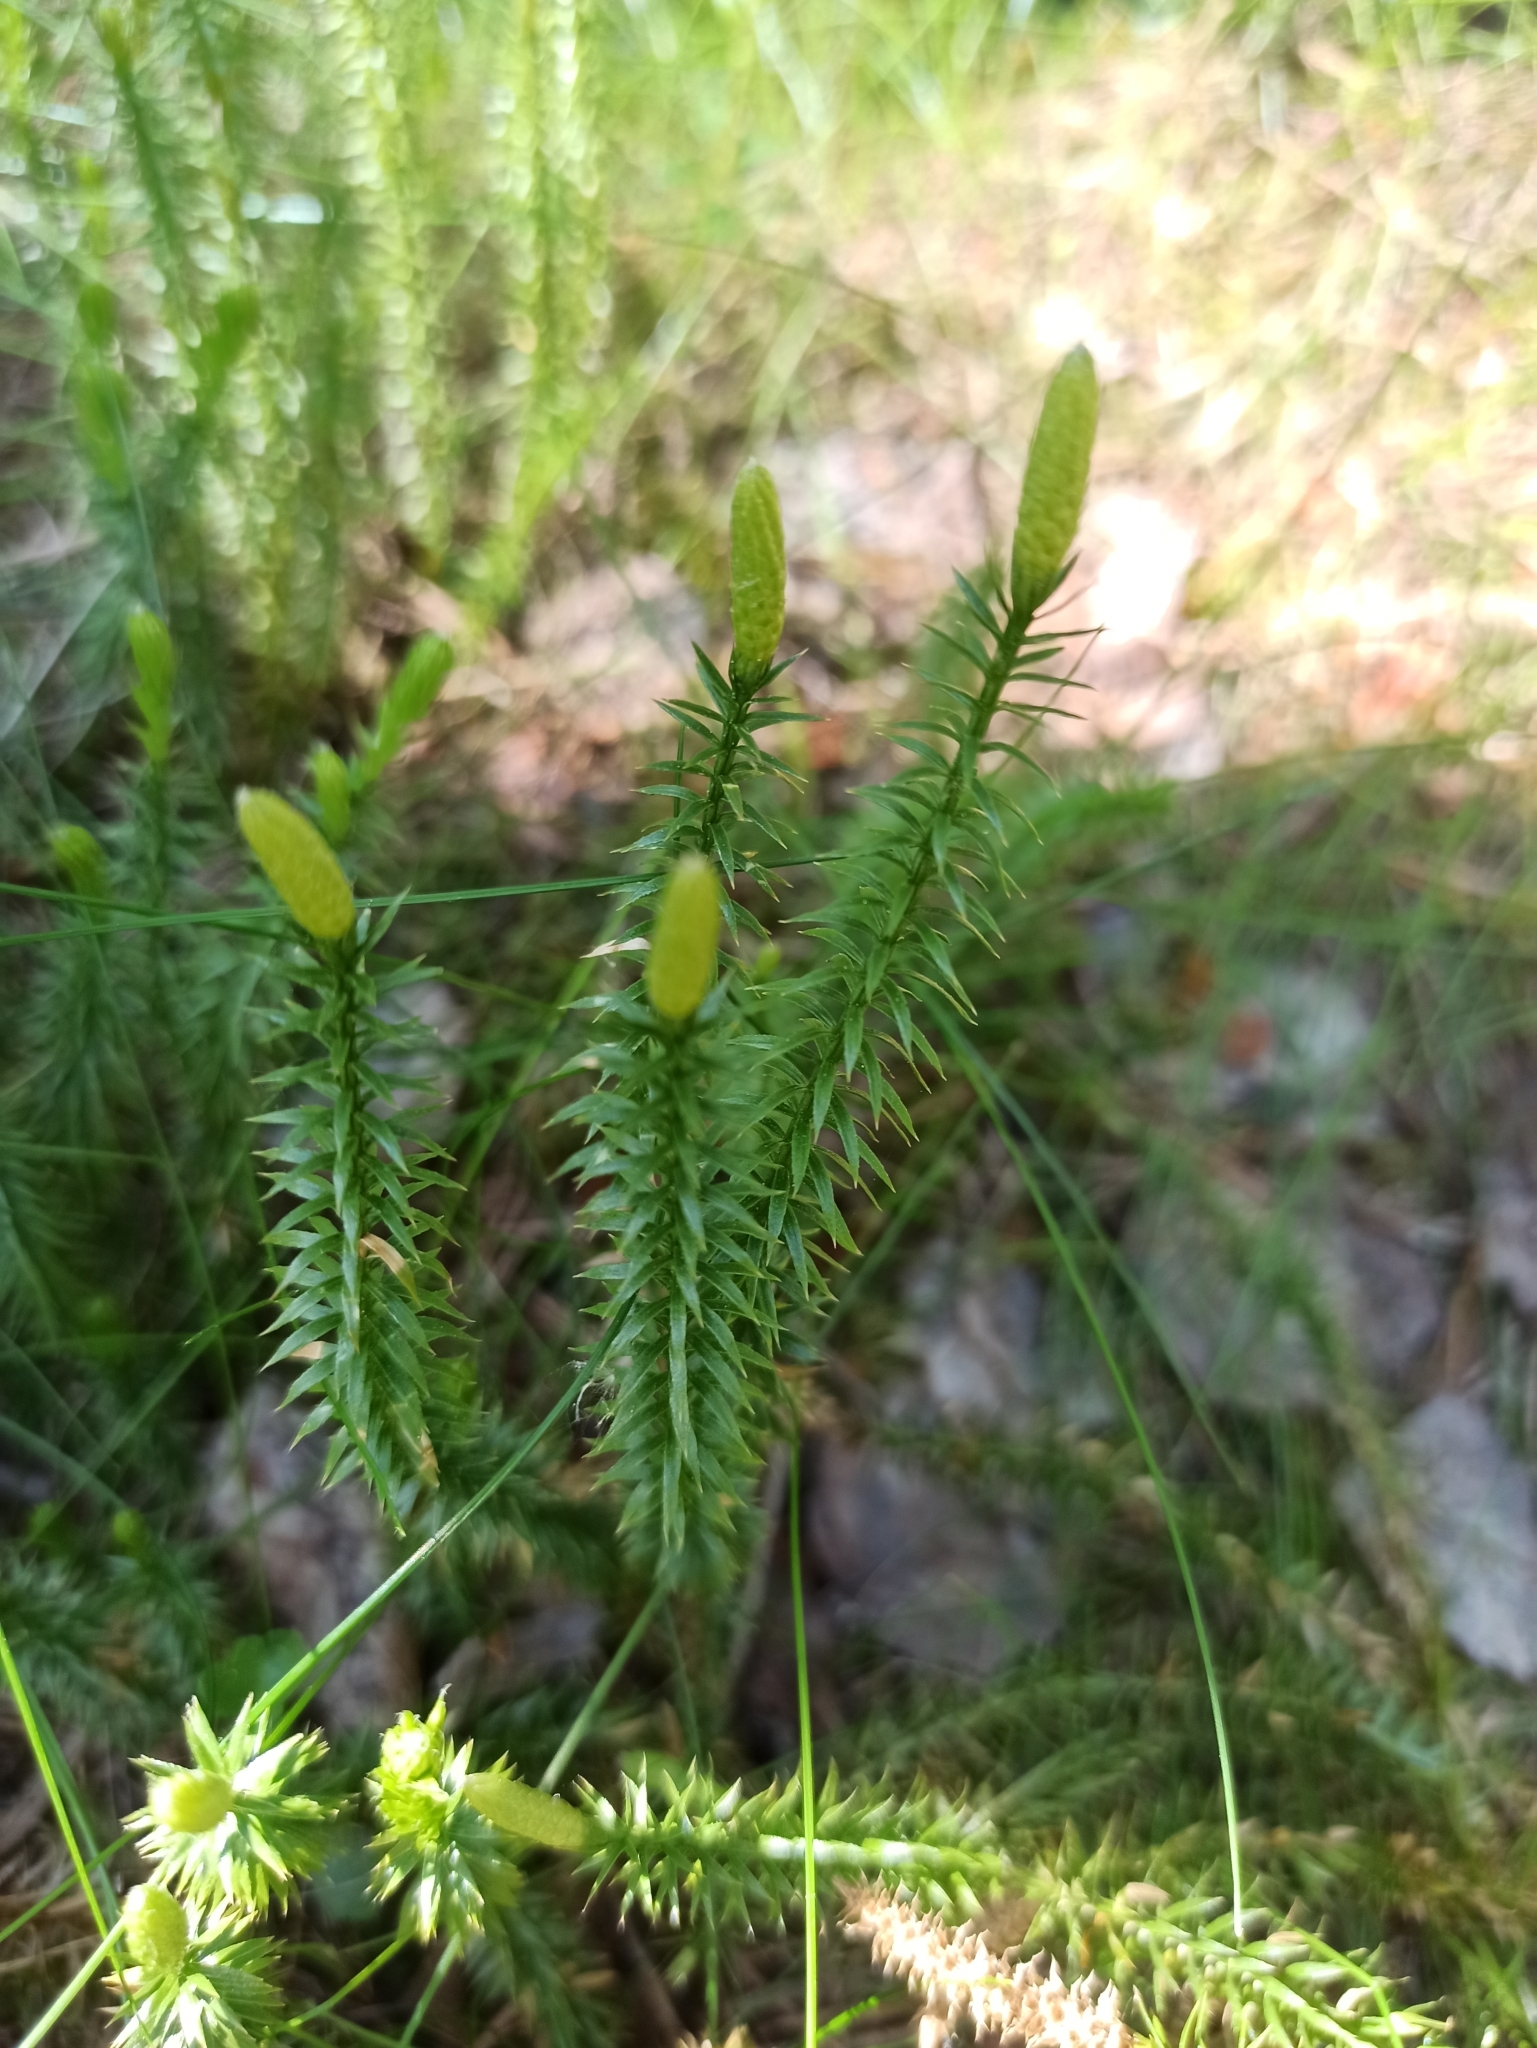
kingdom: Plantae
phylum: Tracheophyta
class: Lycopodiopsida
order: Lycopodiales
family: Lycopodiaceae
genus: Spinulum
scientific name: Spinulum annotinum
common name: Interrupted club-moss
